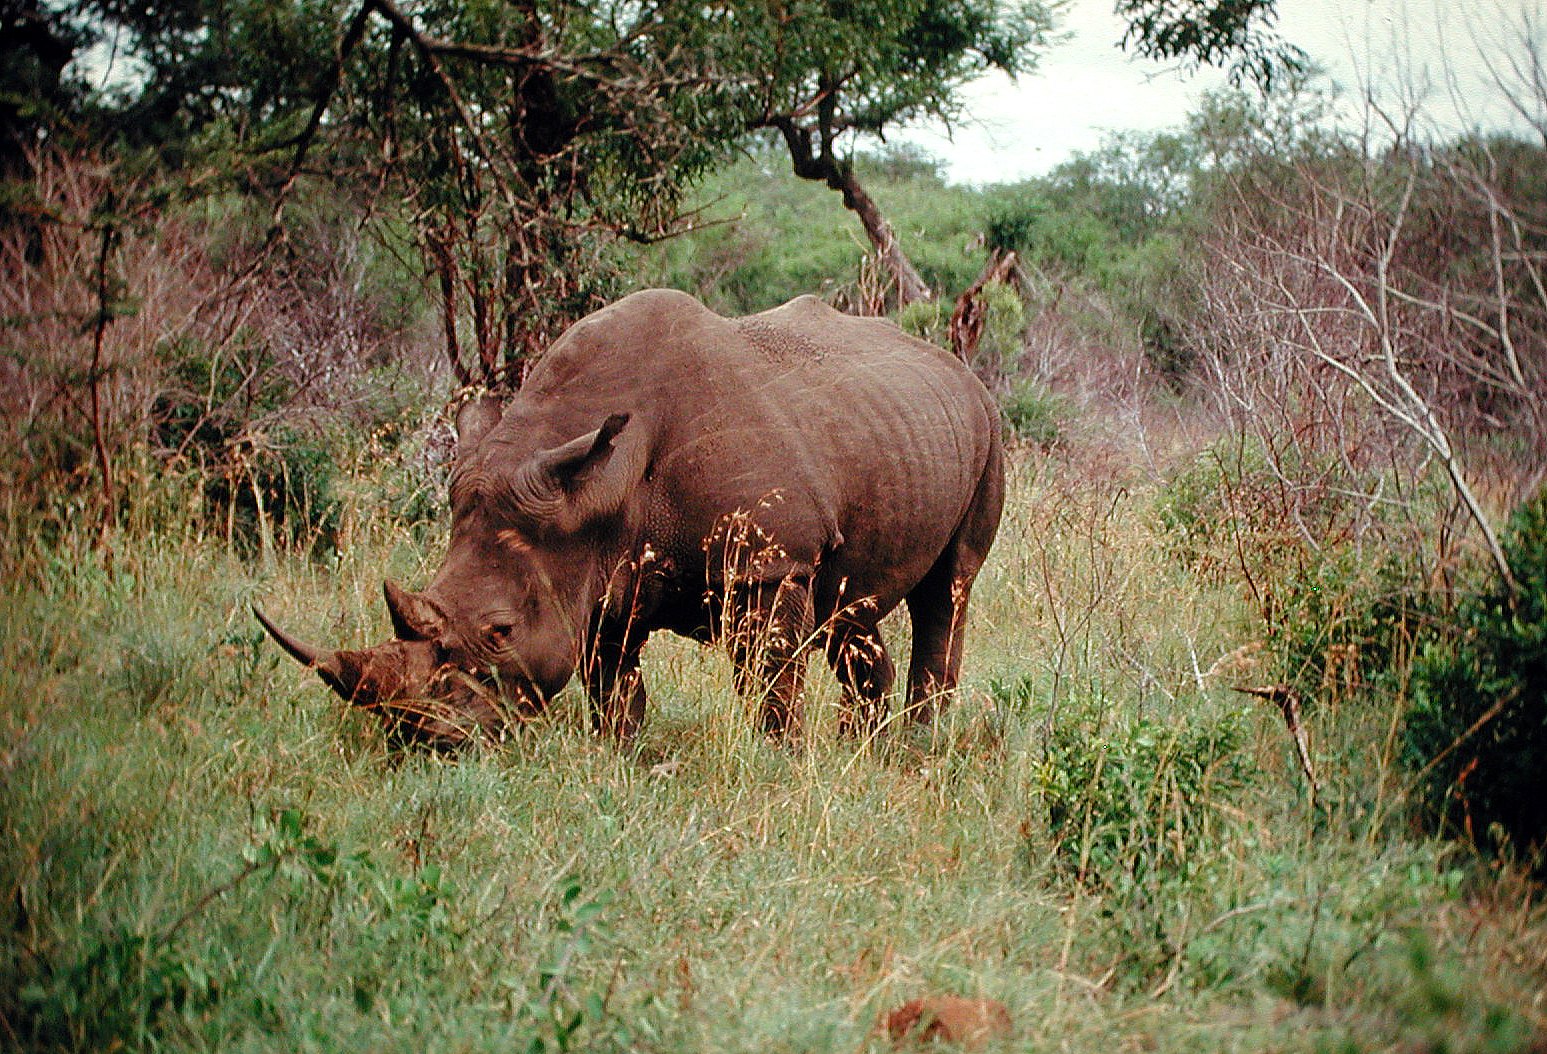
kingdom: Animalia
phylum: Chordata
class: Mammalia
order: Perissodactyla
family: Rhinocerotidae
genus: Ceratotherium
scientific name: Ceratotherium simum
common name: White rhinoceros
